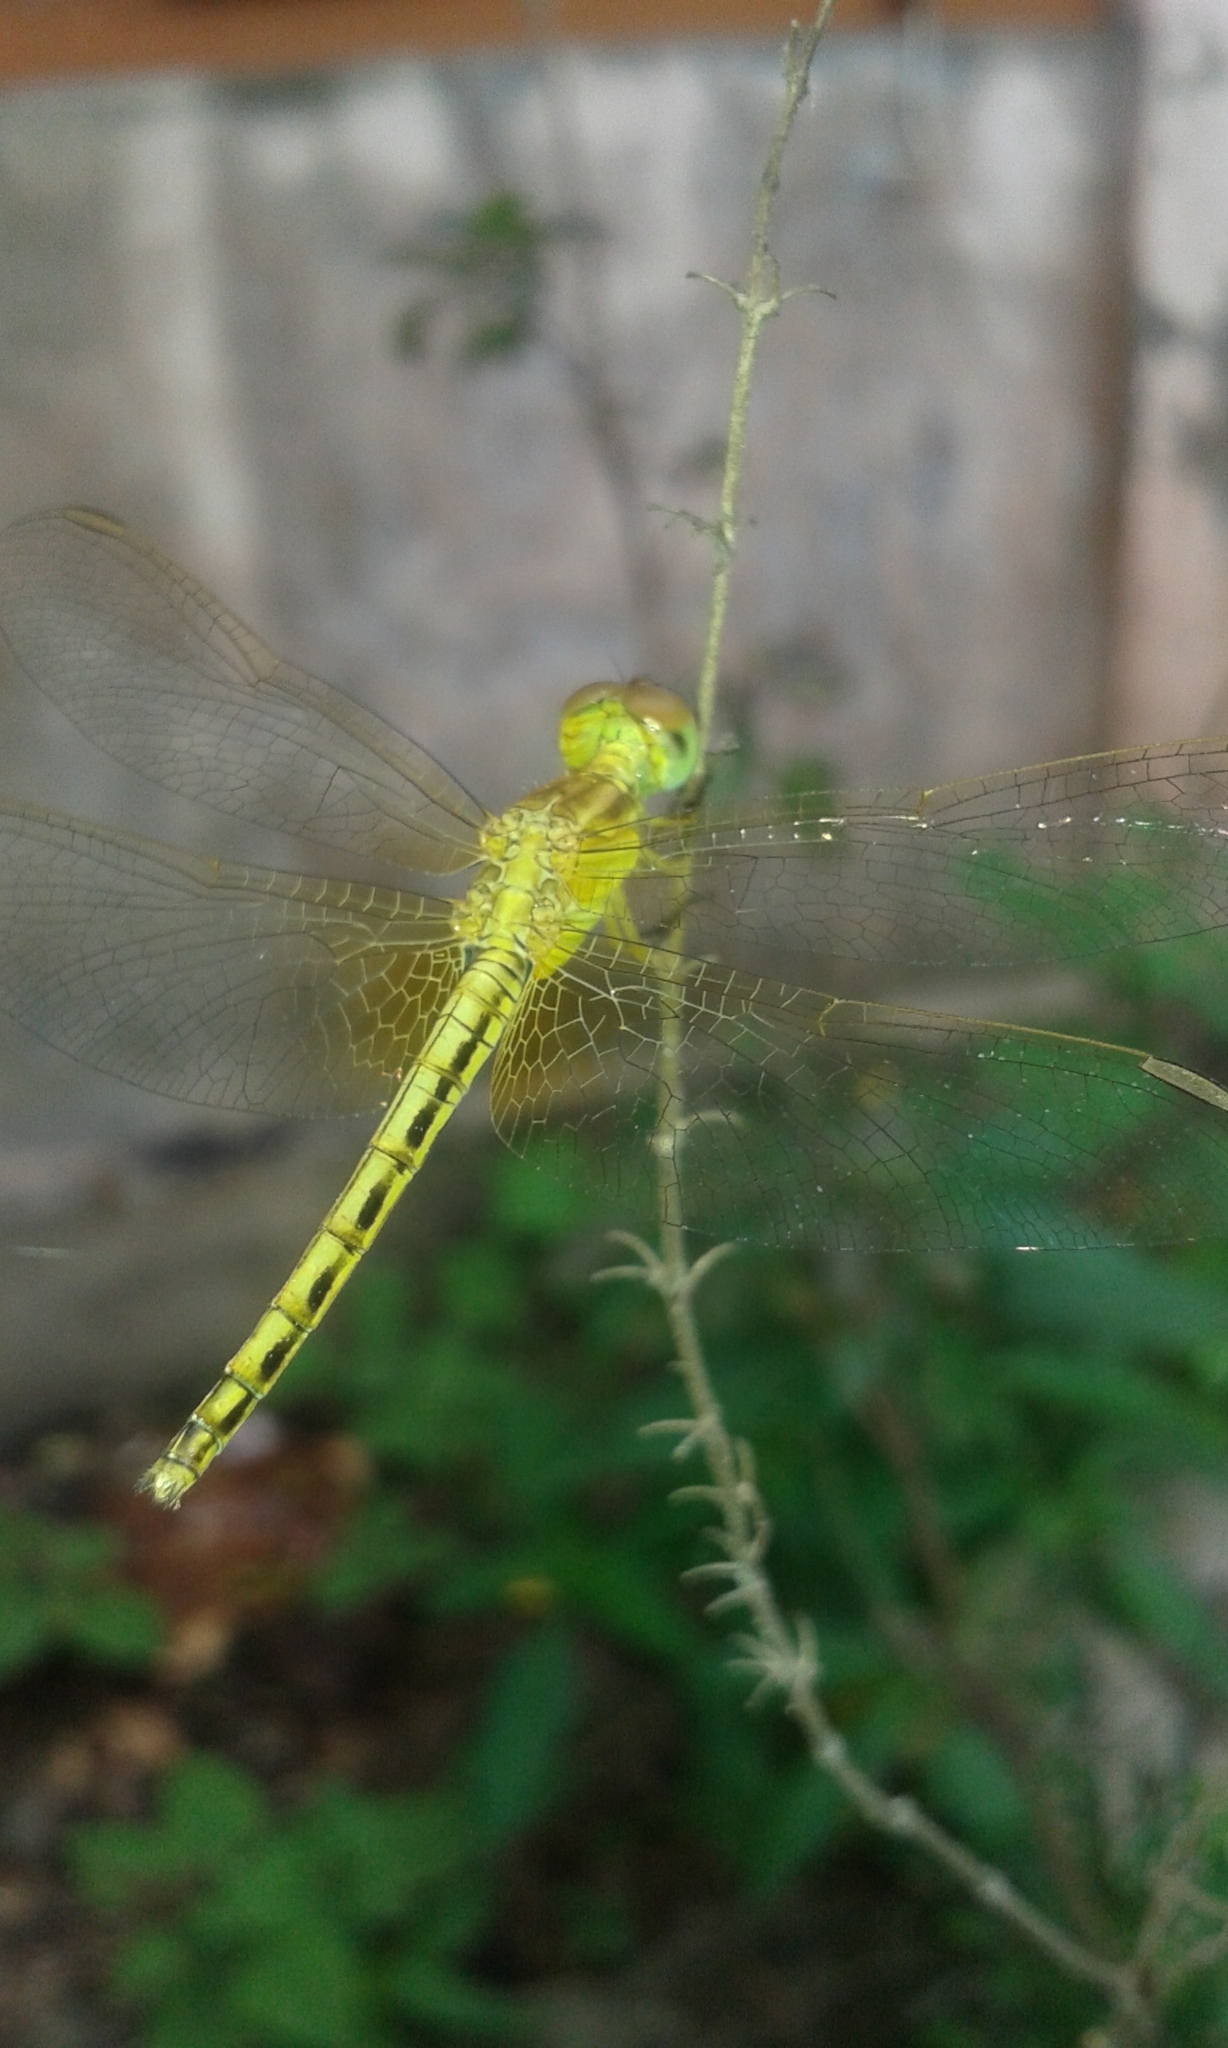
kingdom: Animalia
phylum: Arthropoda
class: Insecta
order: Odonata
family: Libellulidae
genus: Neurothemis
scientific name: Neurothemis intermedia
